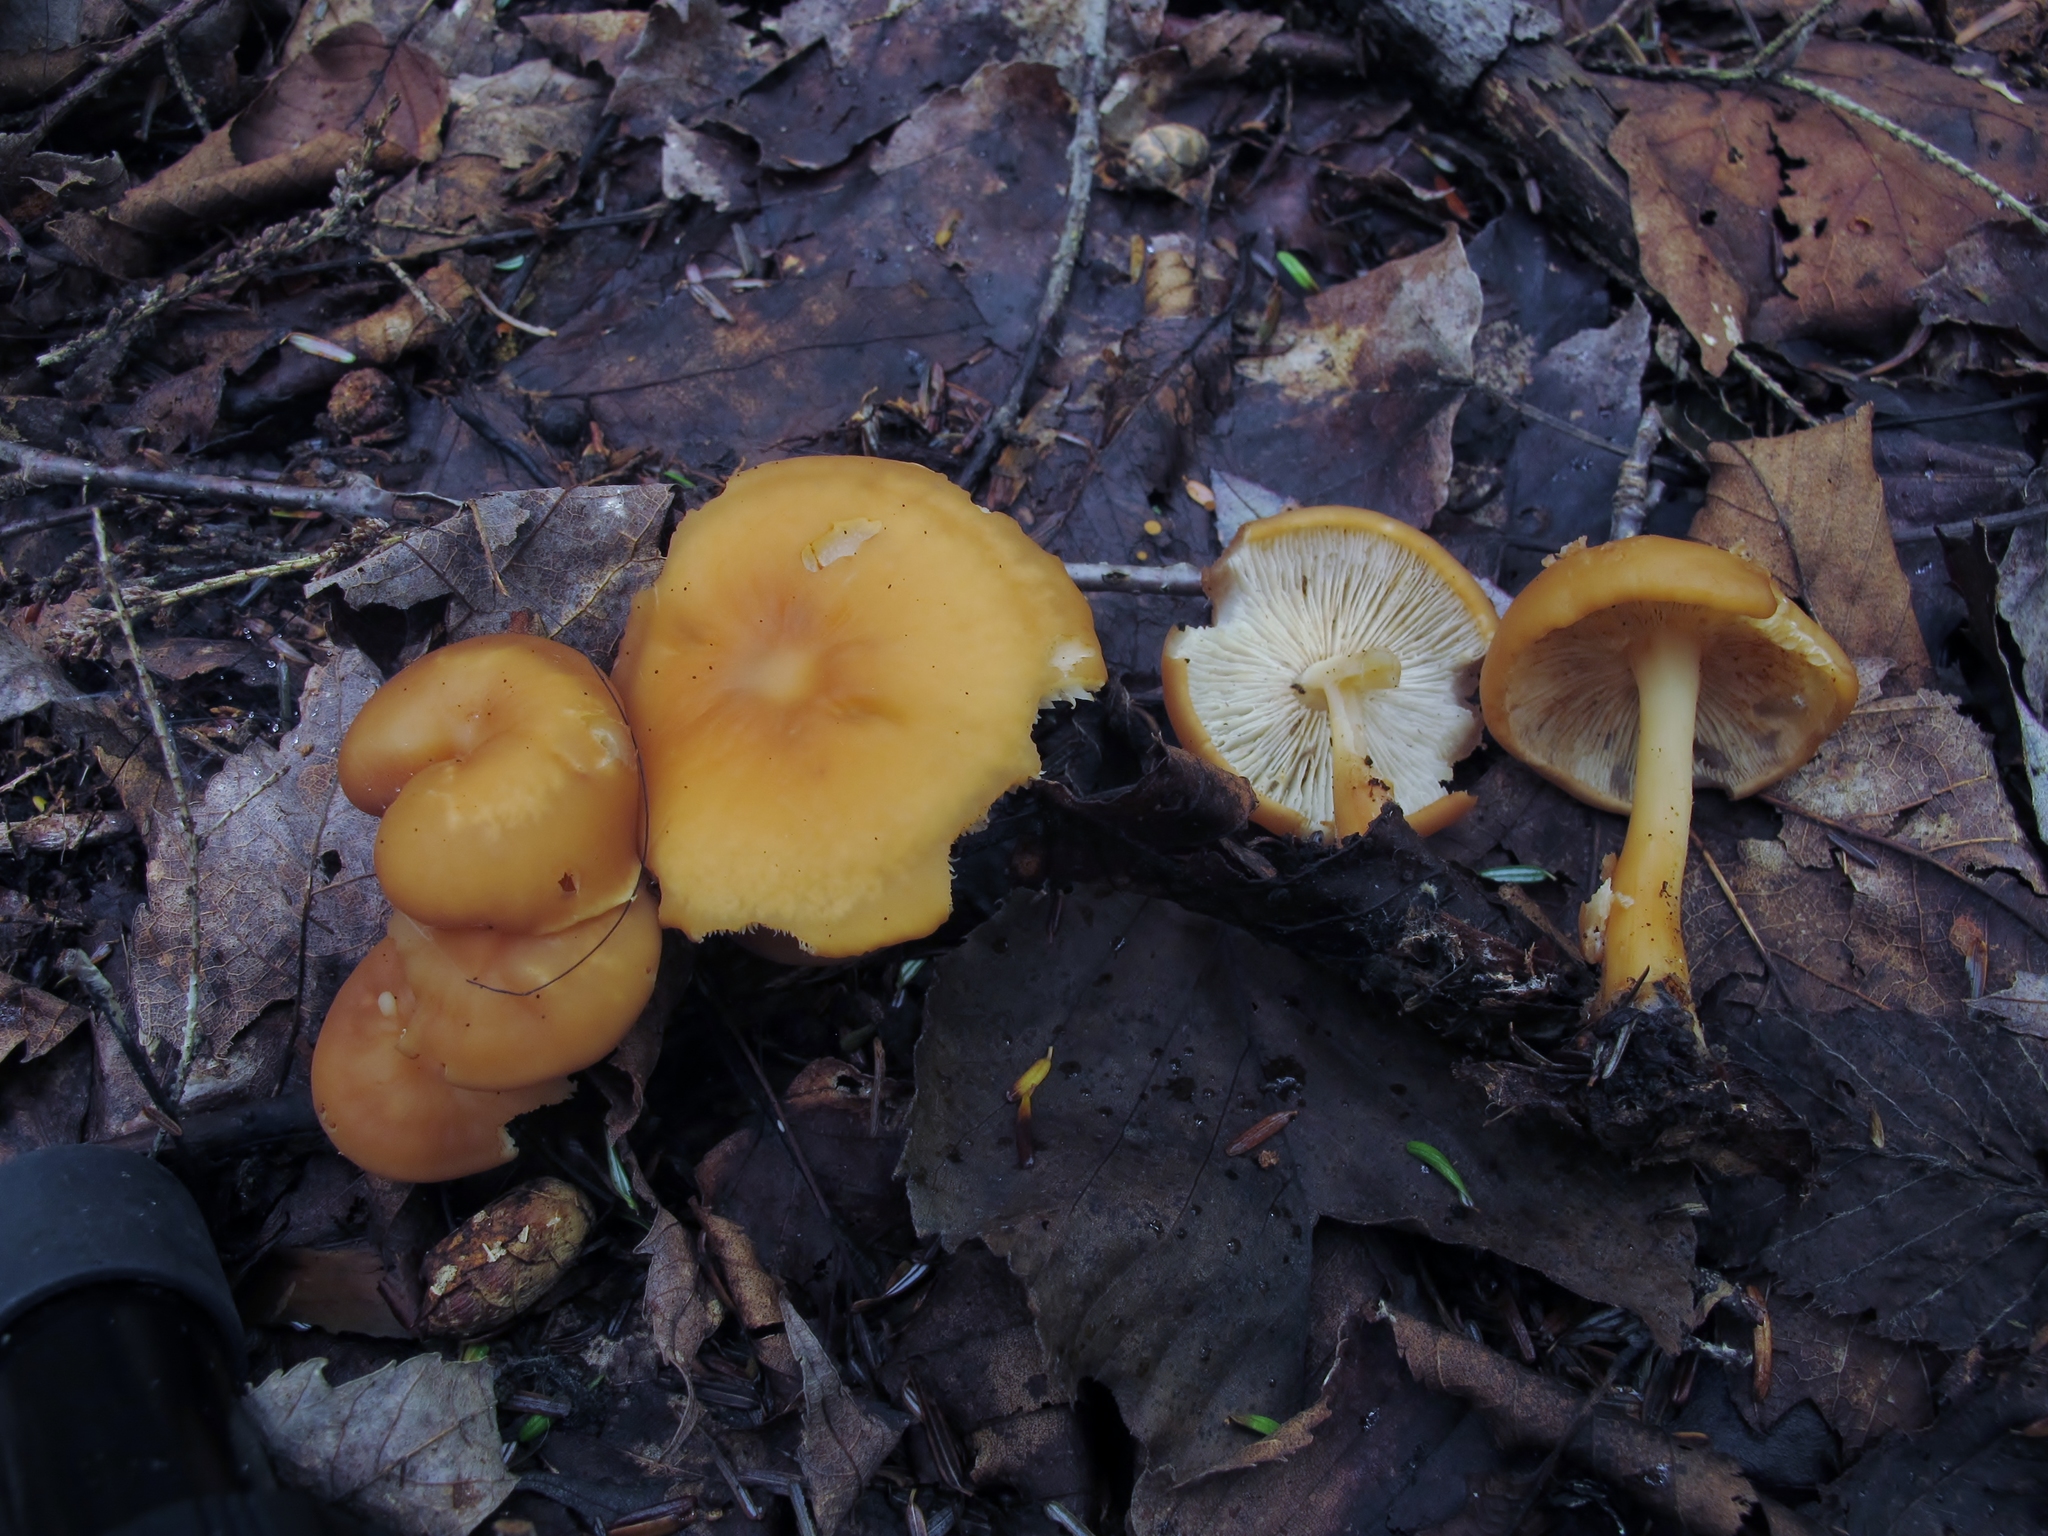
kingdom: Fungi
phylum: Basidiomycota
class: Agaricomycetes
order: Agaricales
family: Omphalotaceae
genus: Gymnopus
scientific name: Gymnopus dryophilus
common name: Penny top
